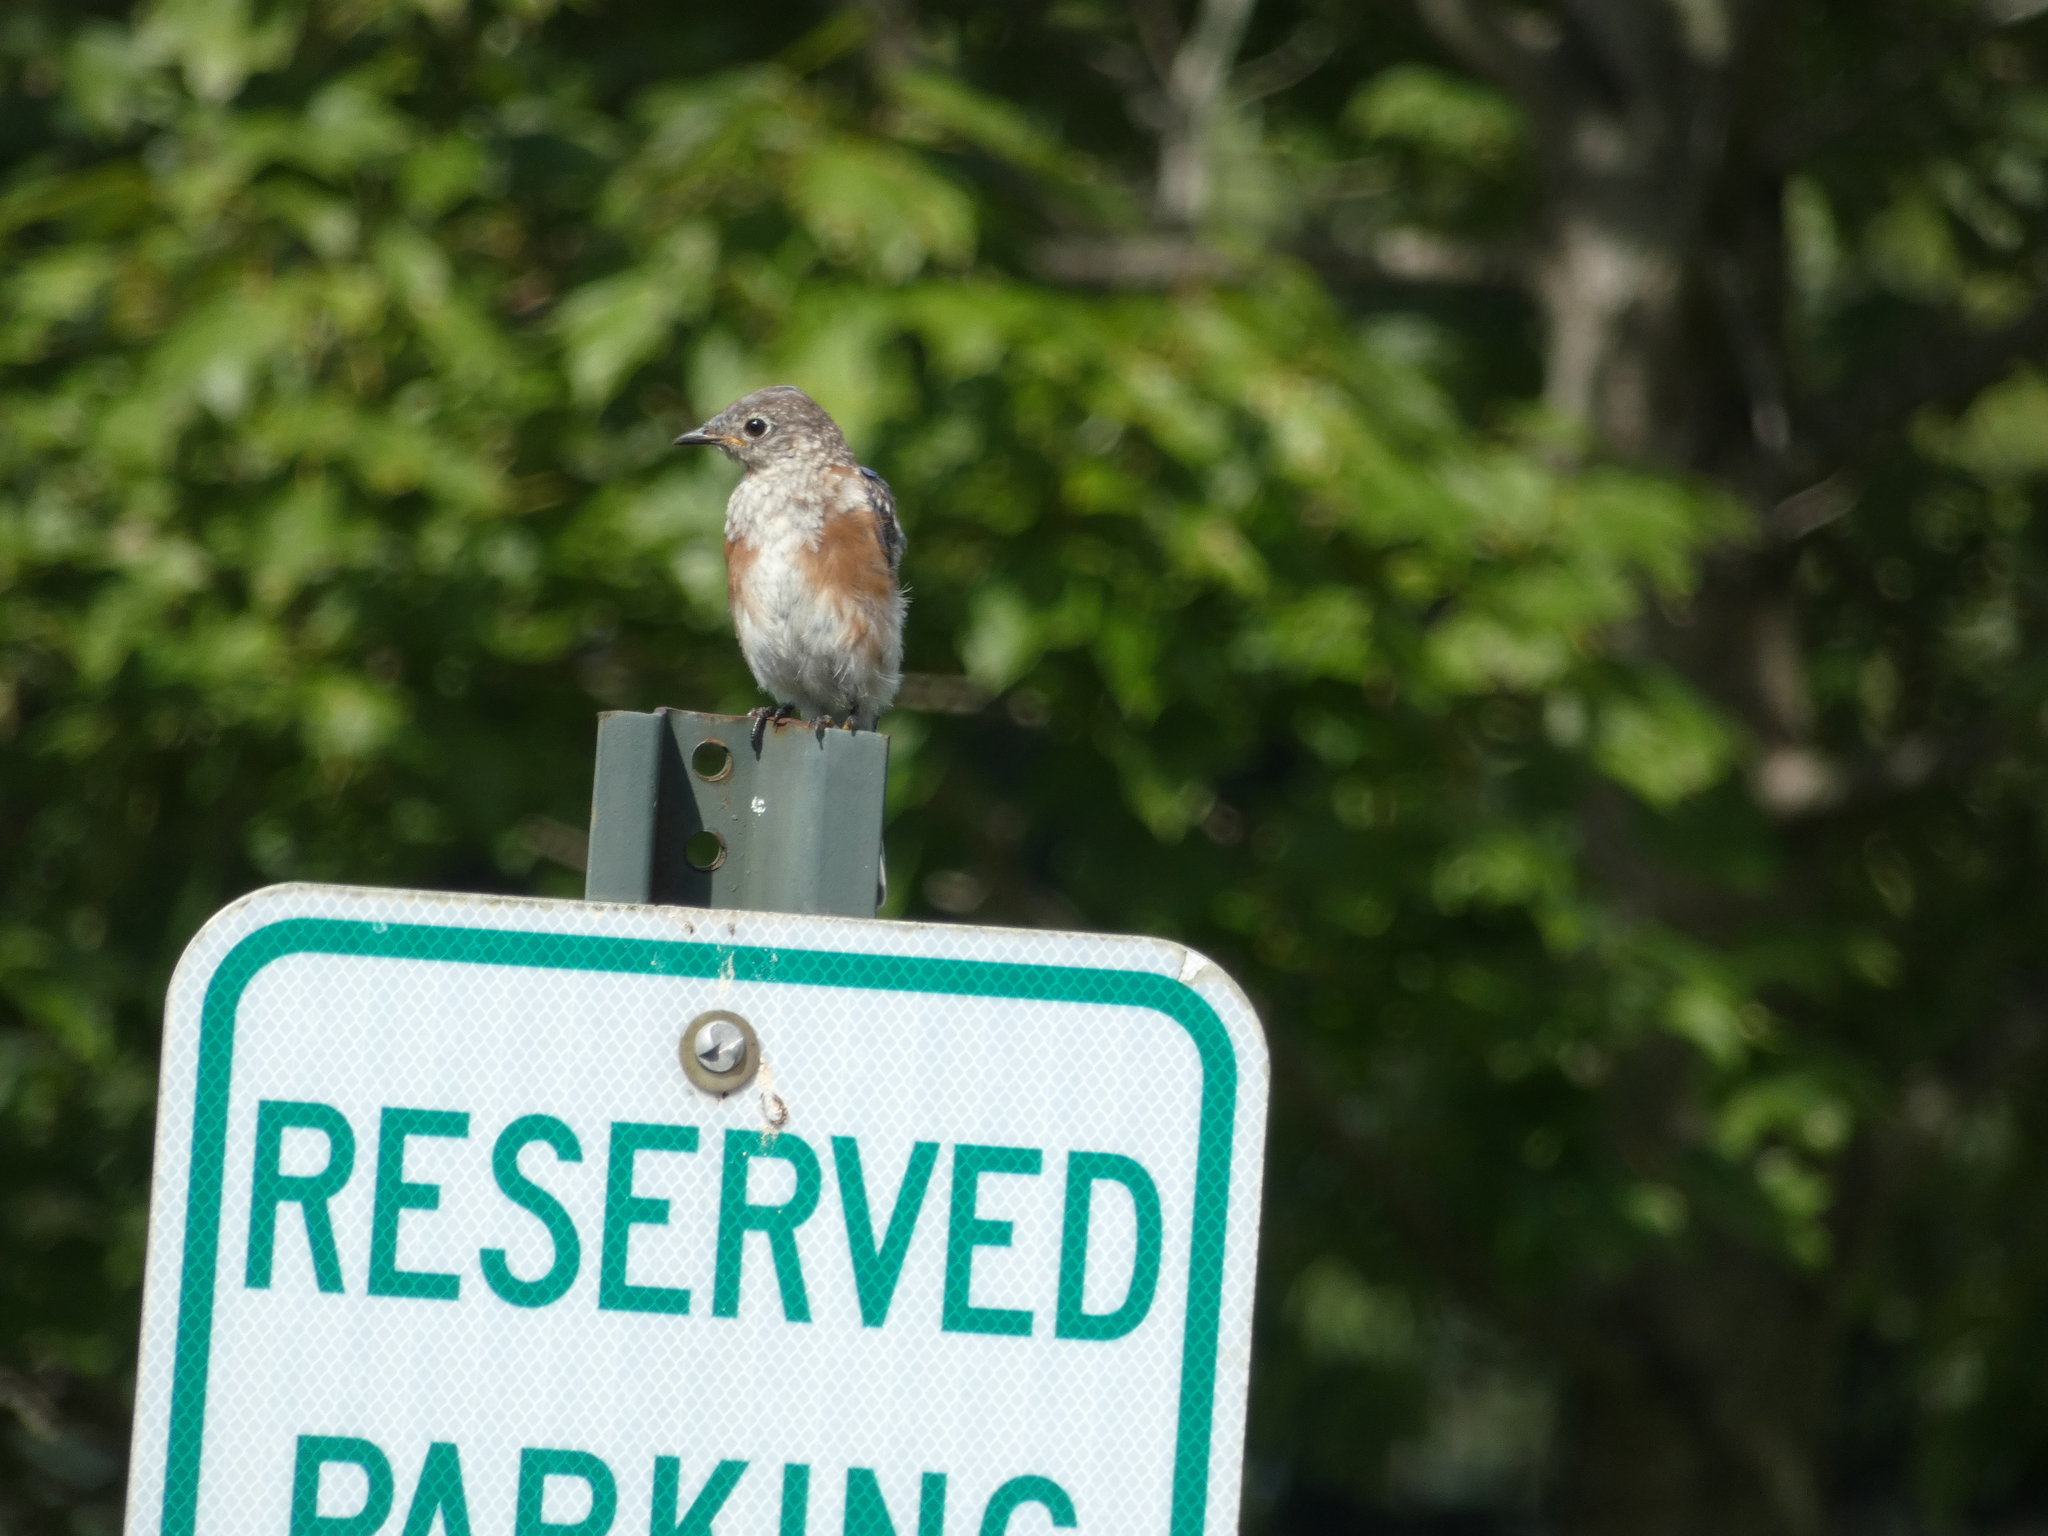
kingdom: Animalia
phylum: Chordata
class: Aves
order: Passeriformes
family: Turdidae
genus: Sialia
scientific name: Sialia sialis
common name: Eastern bluebird
